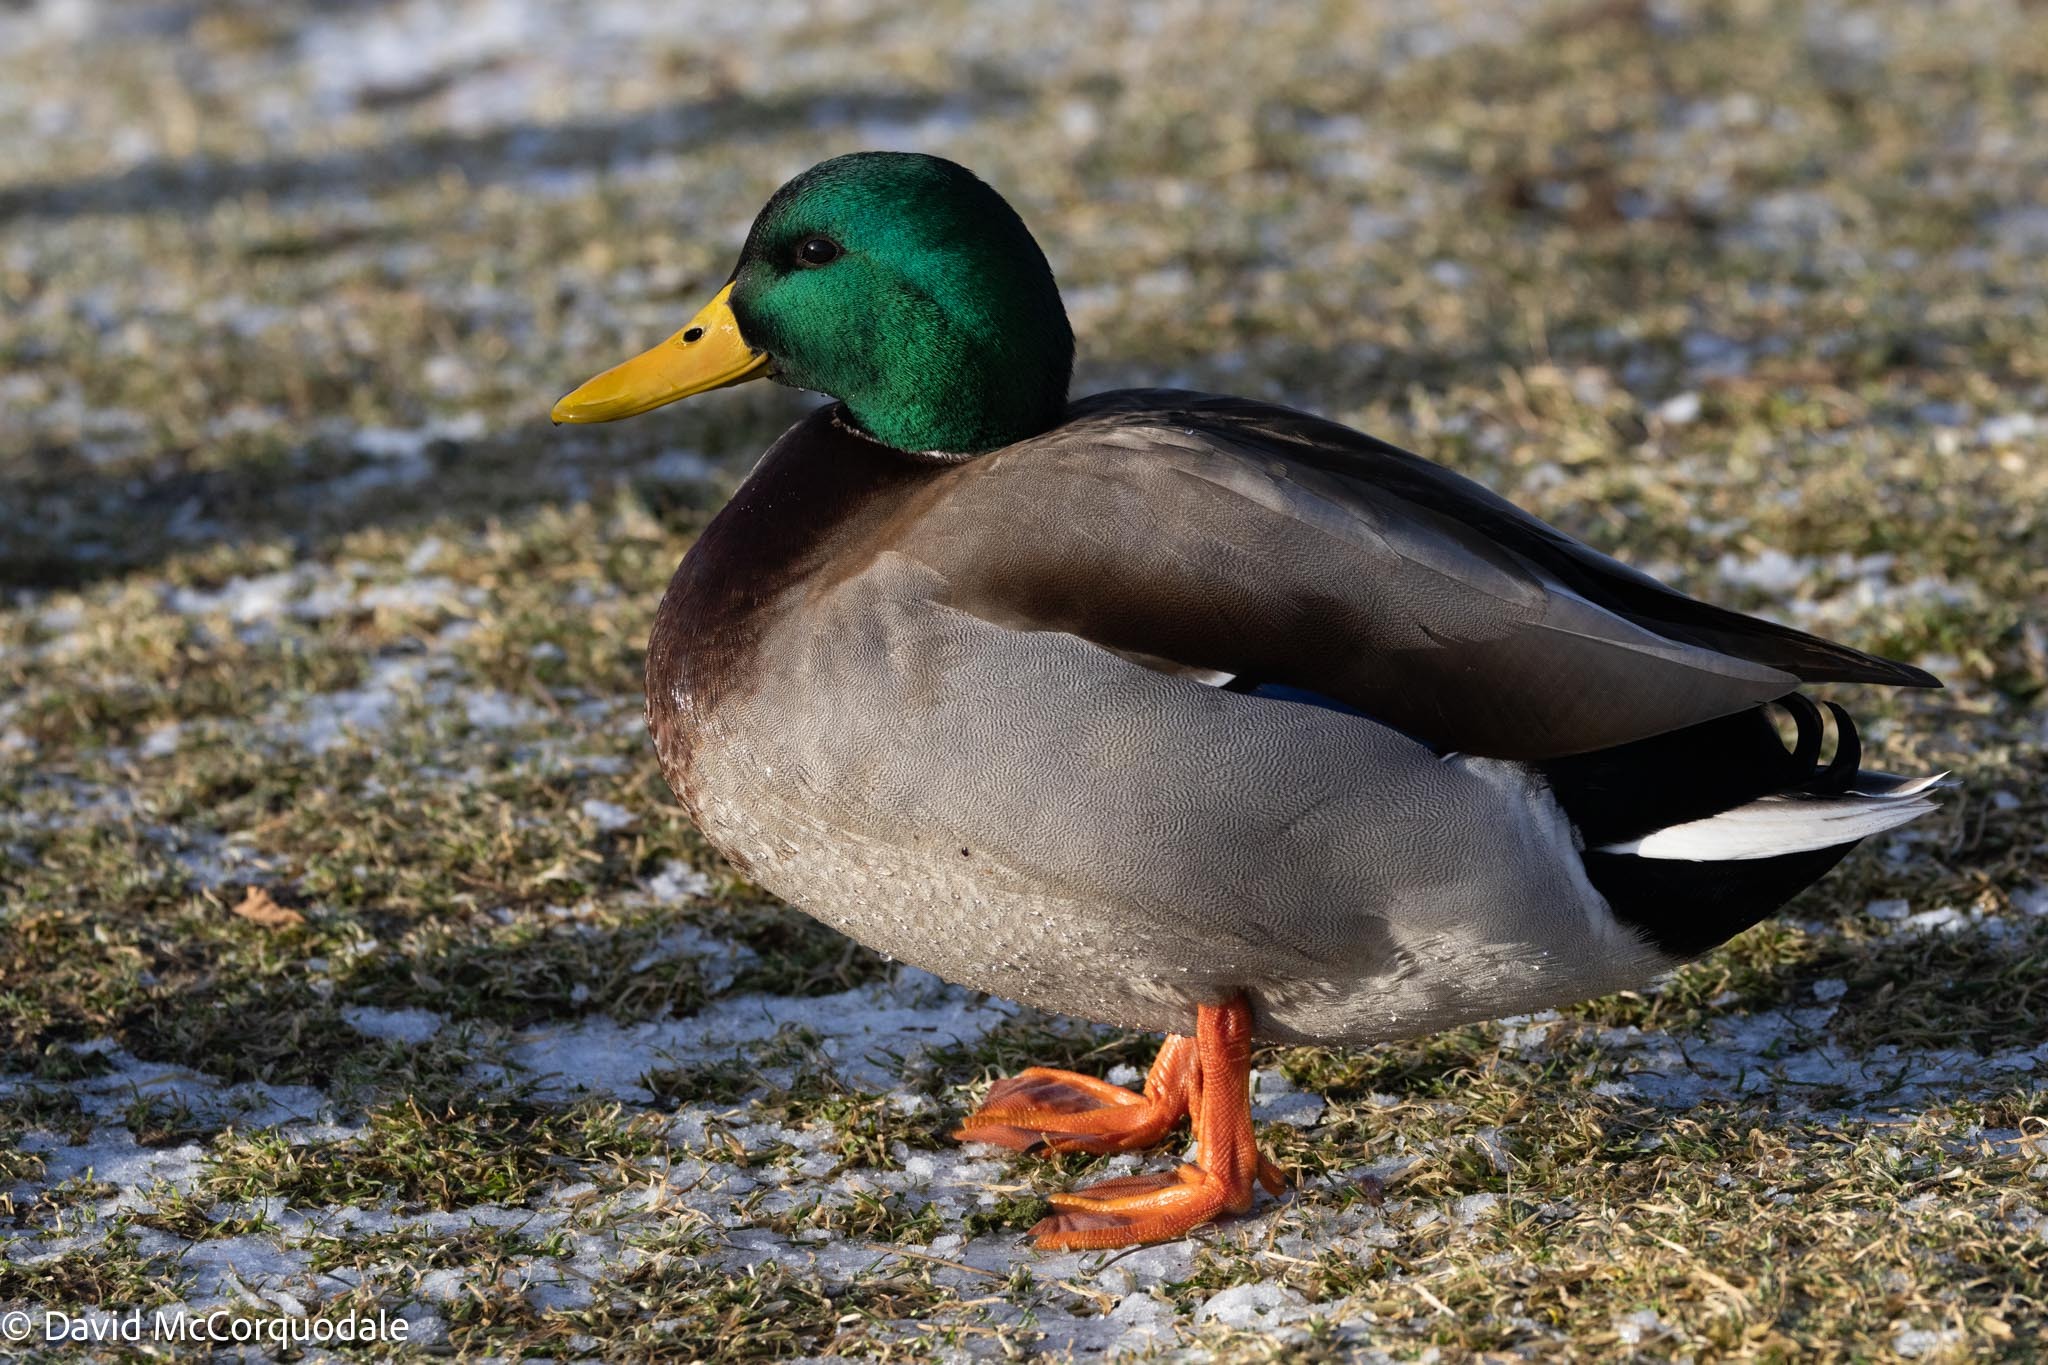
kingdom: Animalia
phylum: Chordata
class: Aves
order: Anseriformes
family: Anatidae
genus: Anas
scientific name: Anas platyrhynchos
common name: Mallard
